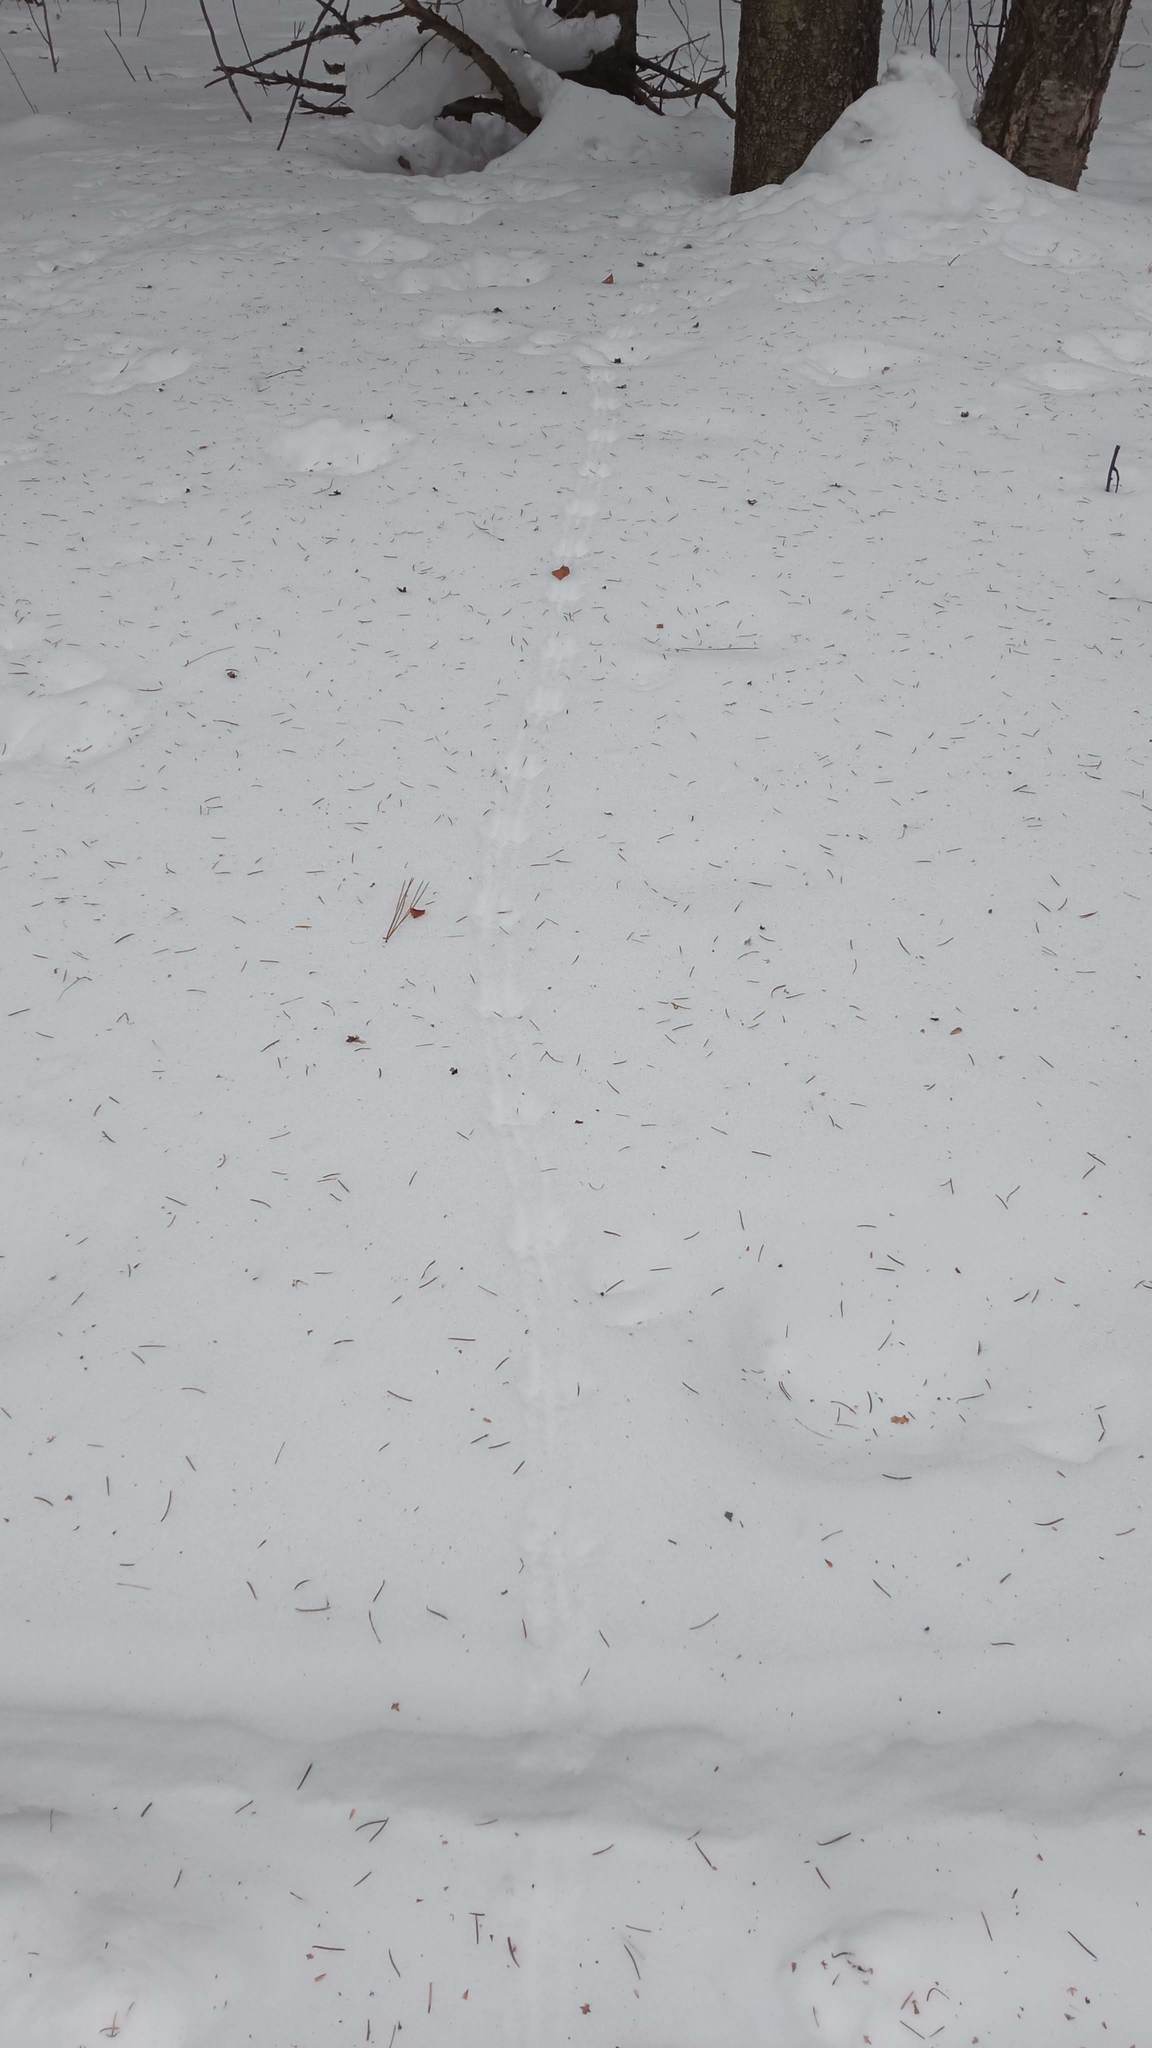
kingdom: Animalia
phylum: Chordata
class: Mammalia
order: Rodentia
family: Sciuridae
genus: Tamias
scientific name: Tamias sibiricus
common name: Siberian chipmunk
